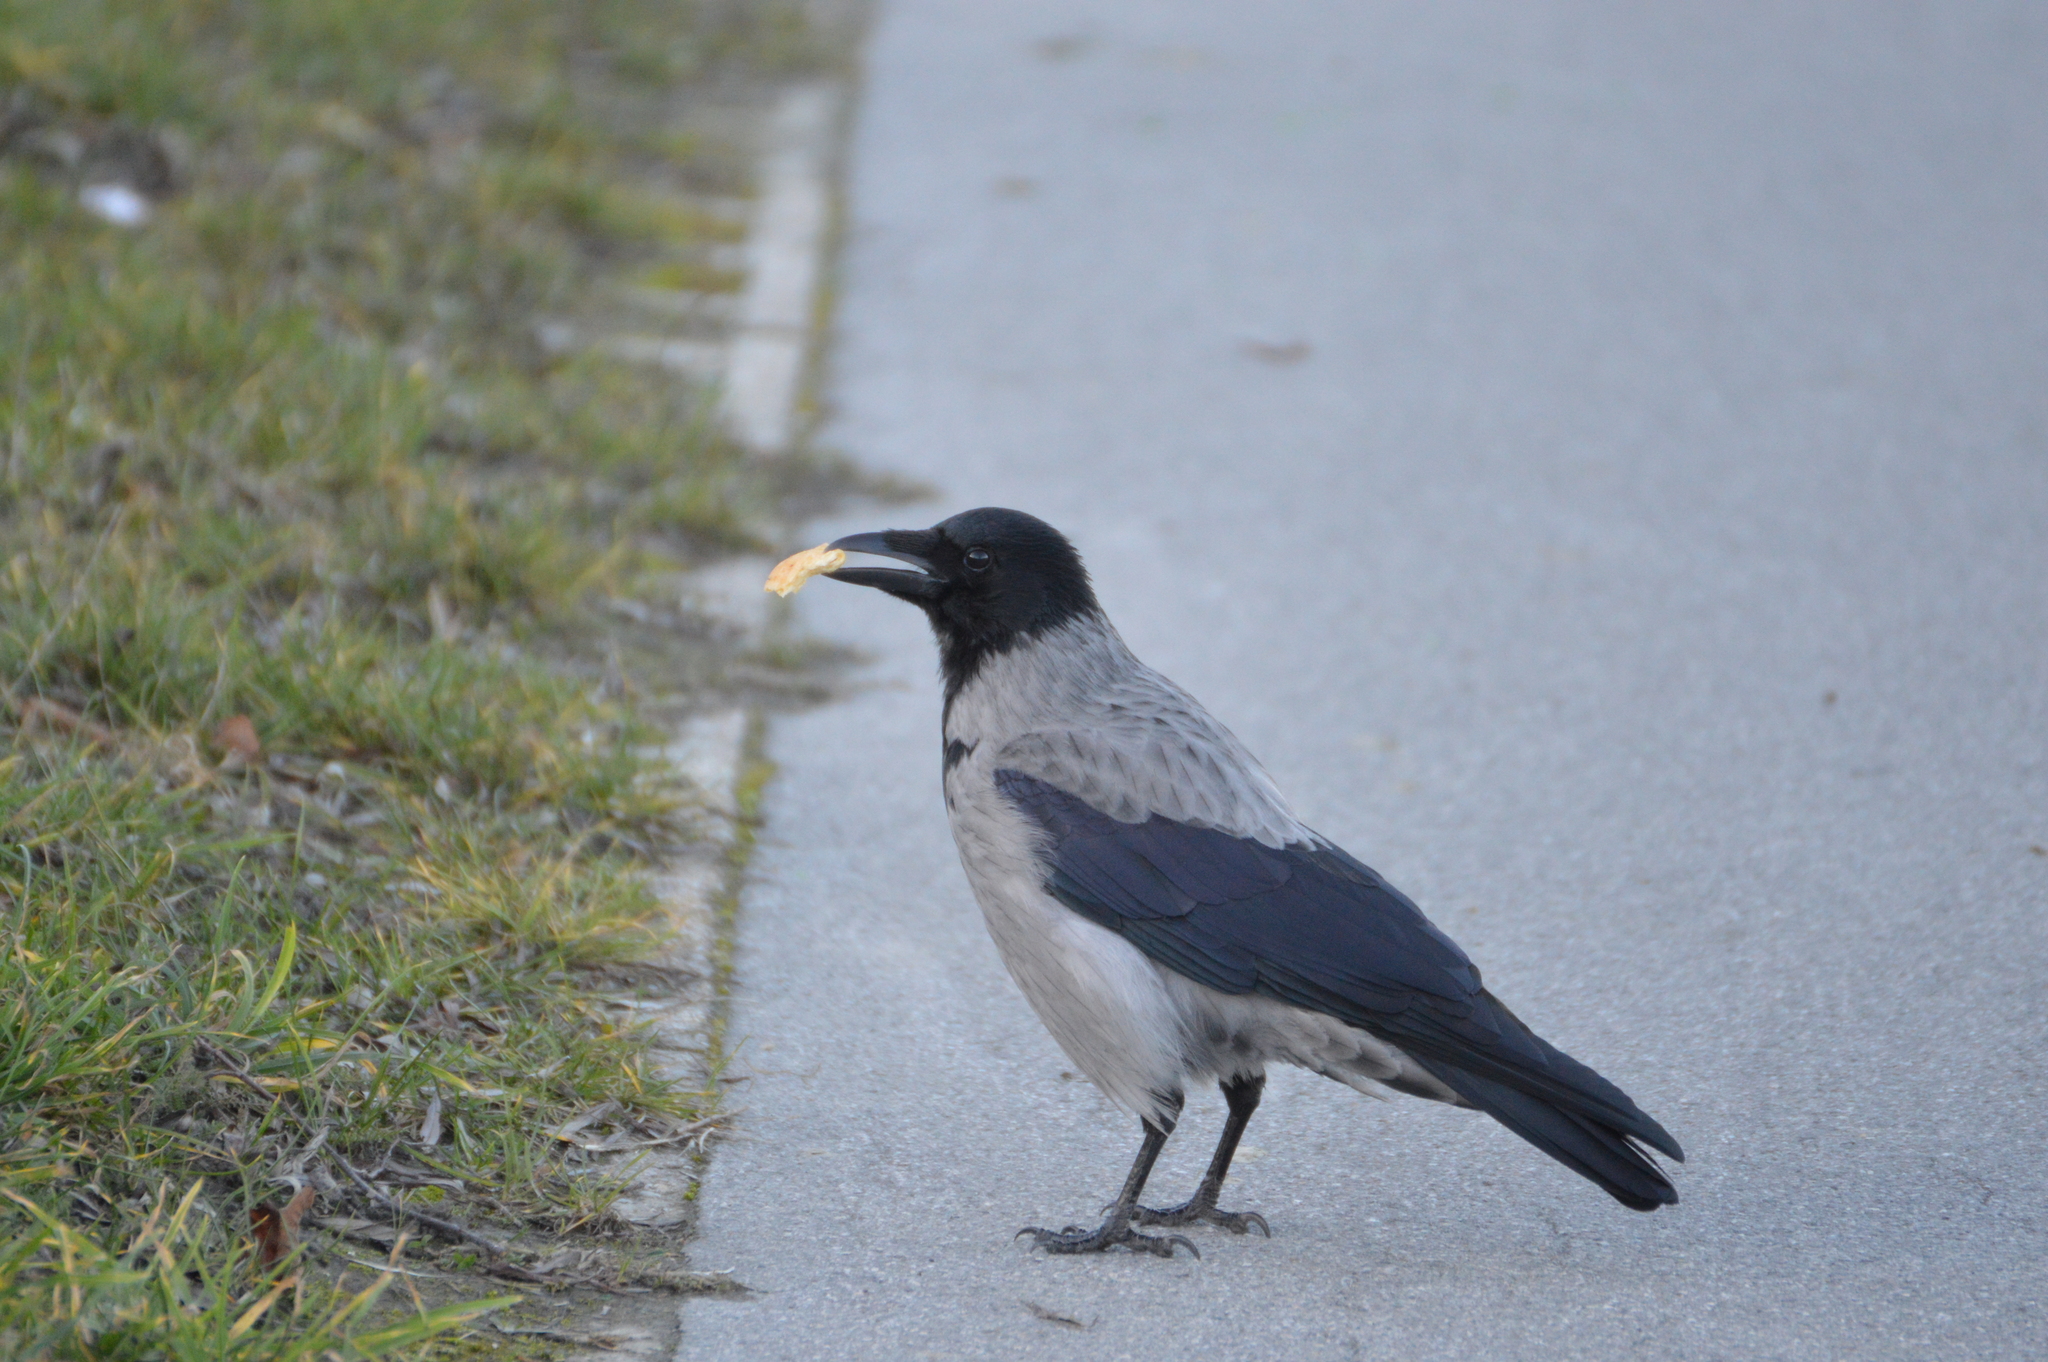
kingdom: Animalia
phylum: Chordata
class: Aves
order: Passeriformes
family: Corvidae
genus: Corvus
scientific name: Corvus
